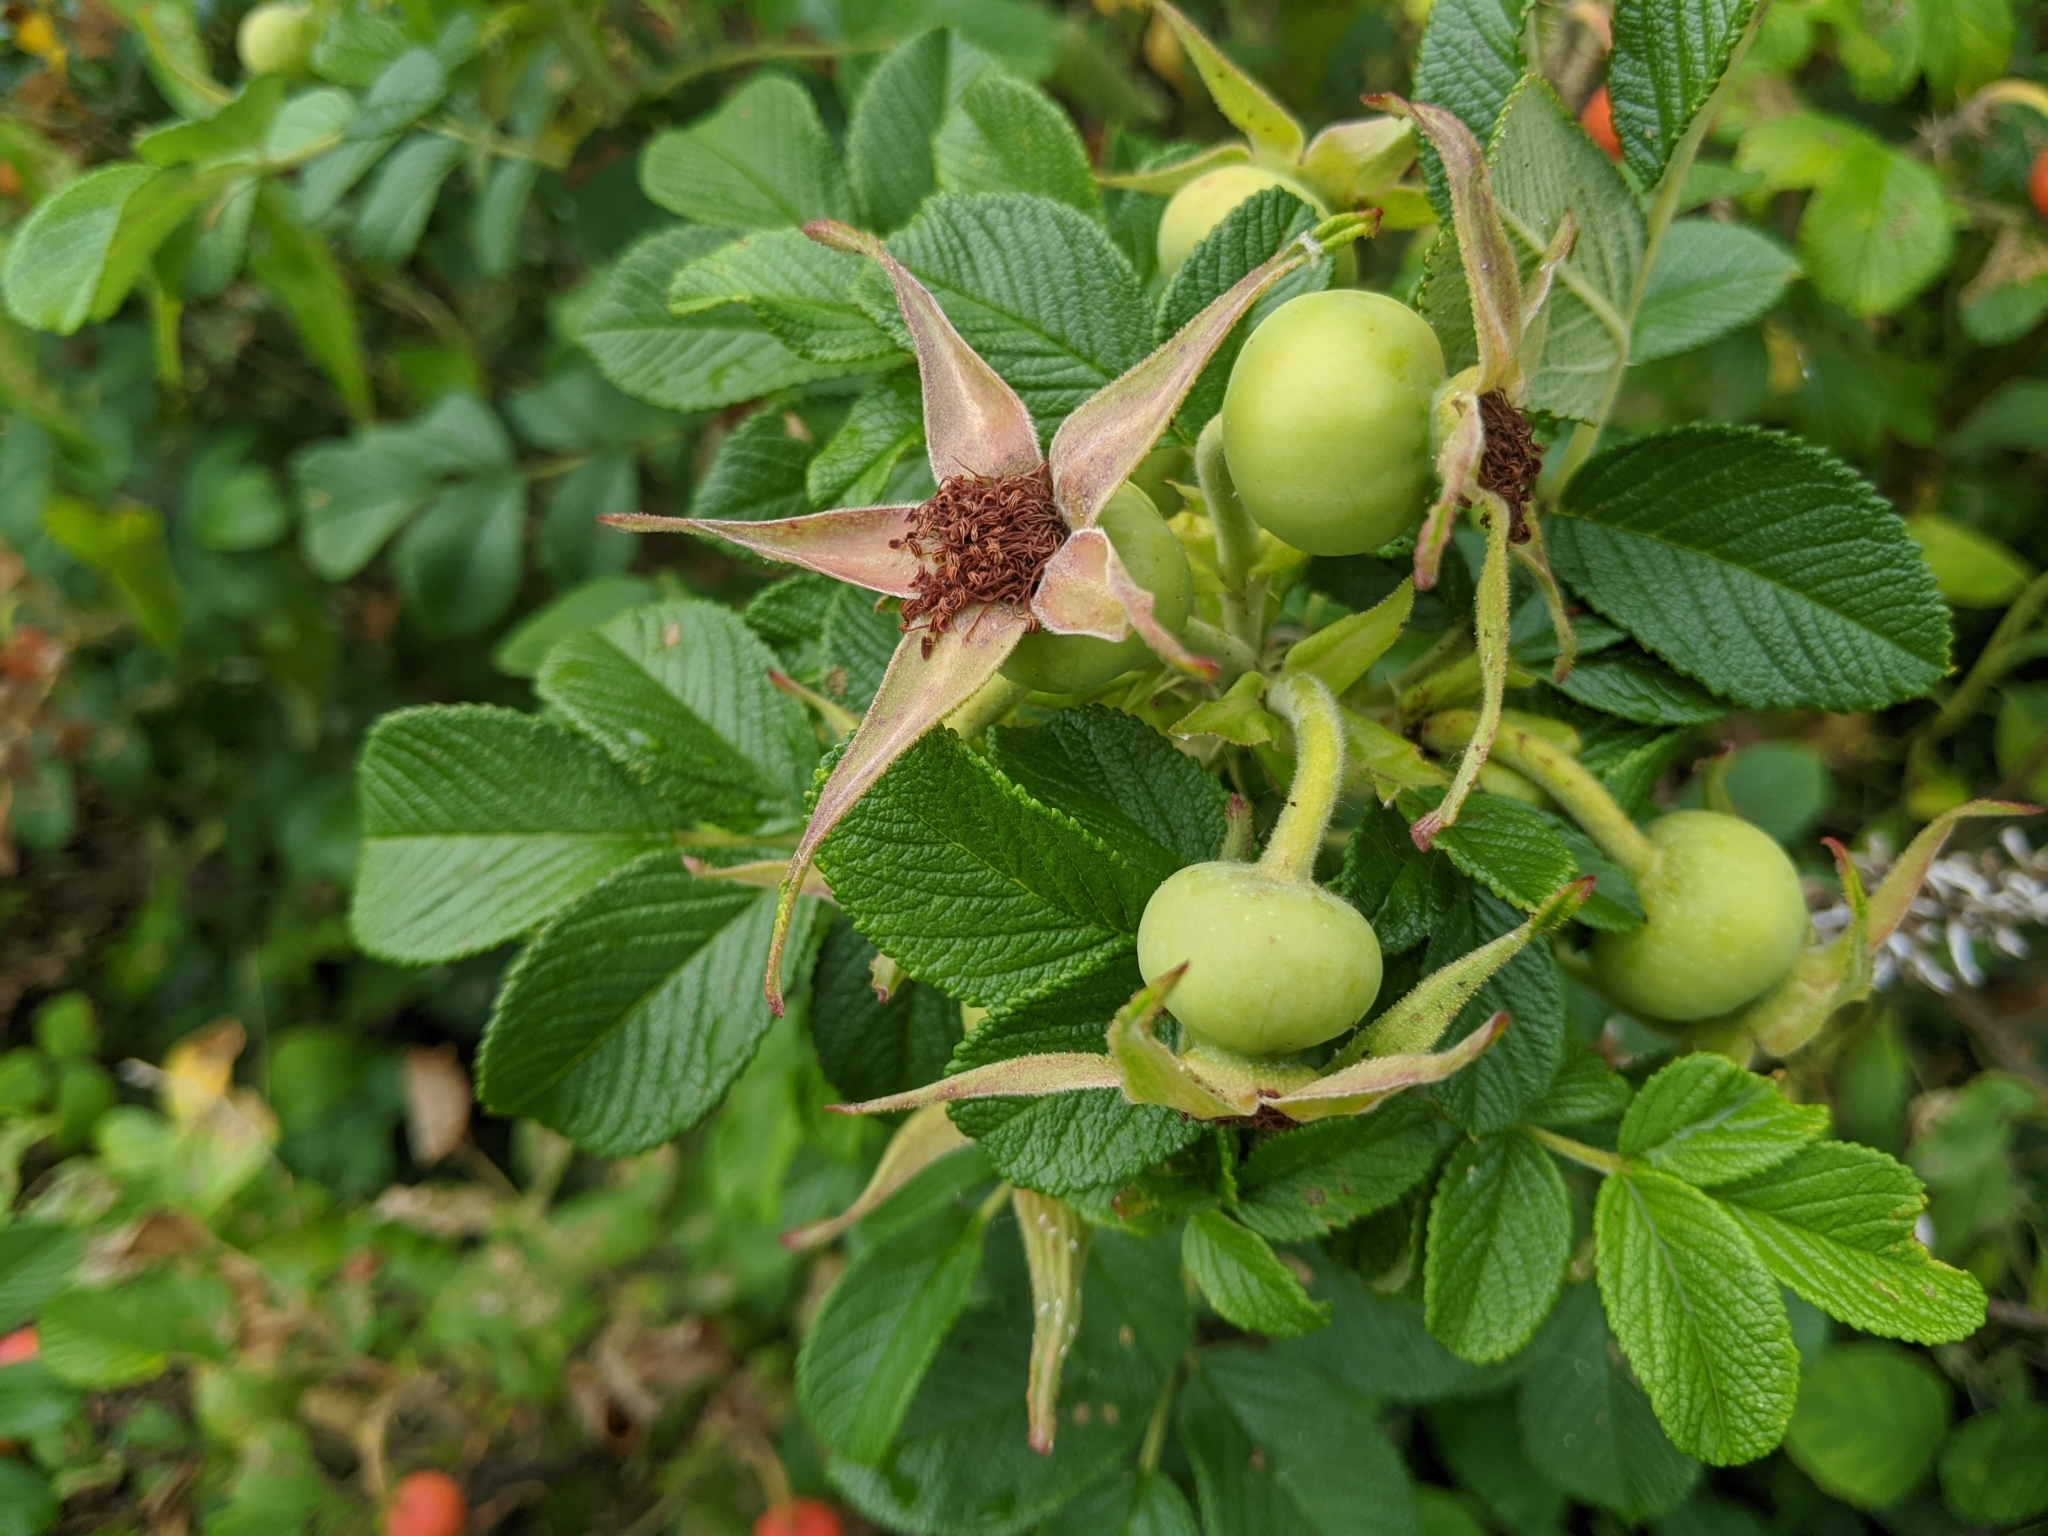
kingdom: Plantae
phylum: Tracheophyta
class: Magnoliopsida
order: Rosales
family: Rosaceae
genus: Rosa
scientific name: Rosa rugosa
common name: Japanese rose
